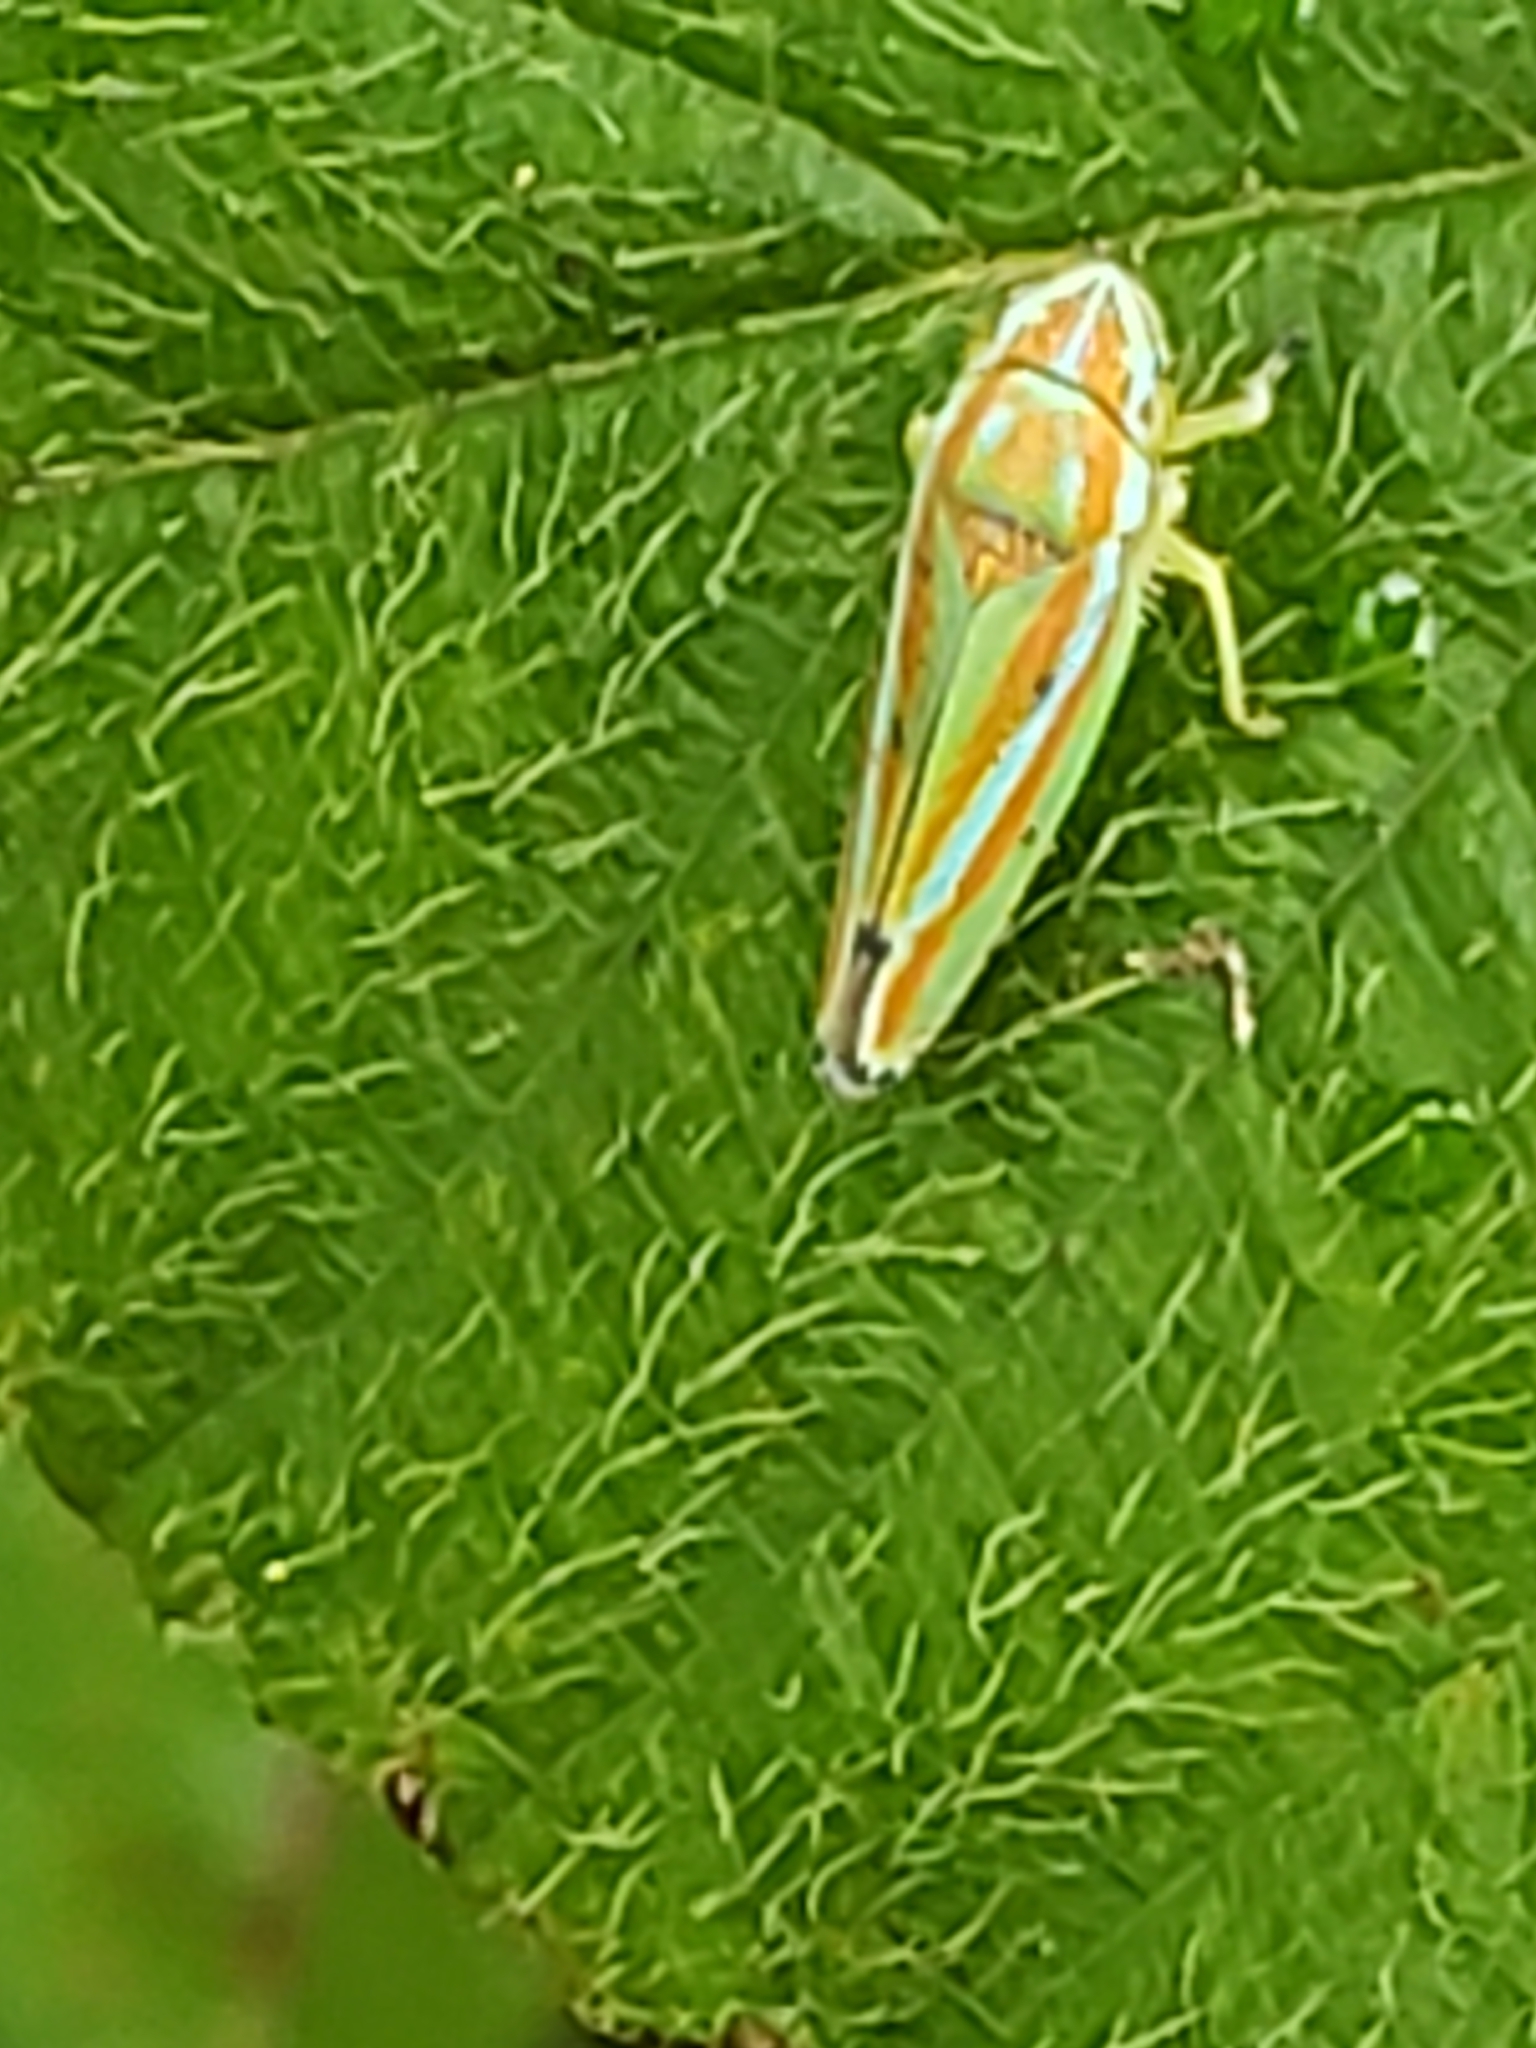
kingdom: Animalia
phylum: Arthropoda
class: Insecta
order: Hemiptera
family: Cicadellidae
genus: Graphocephala
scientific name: Graphocephala versuta
